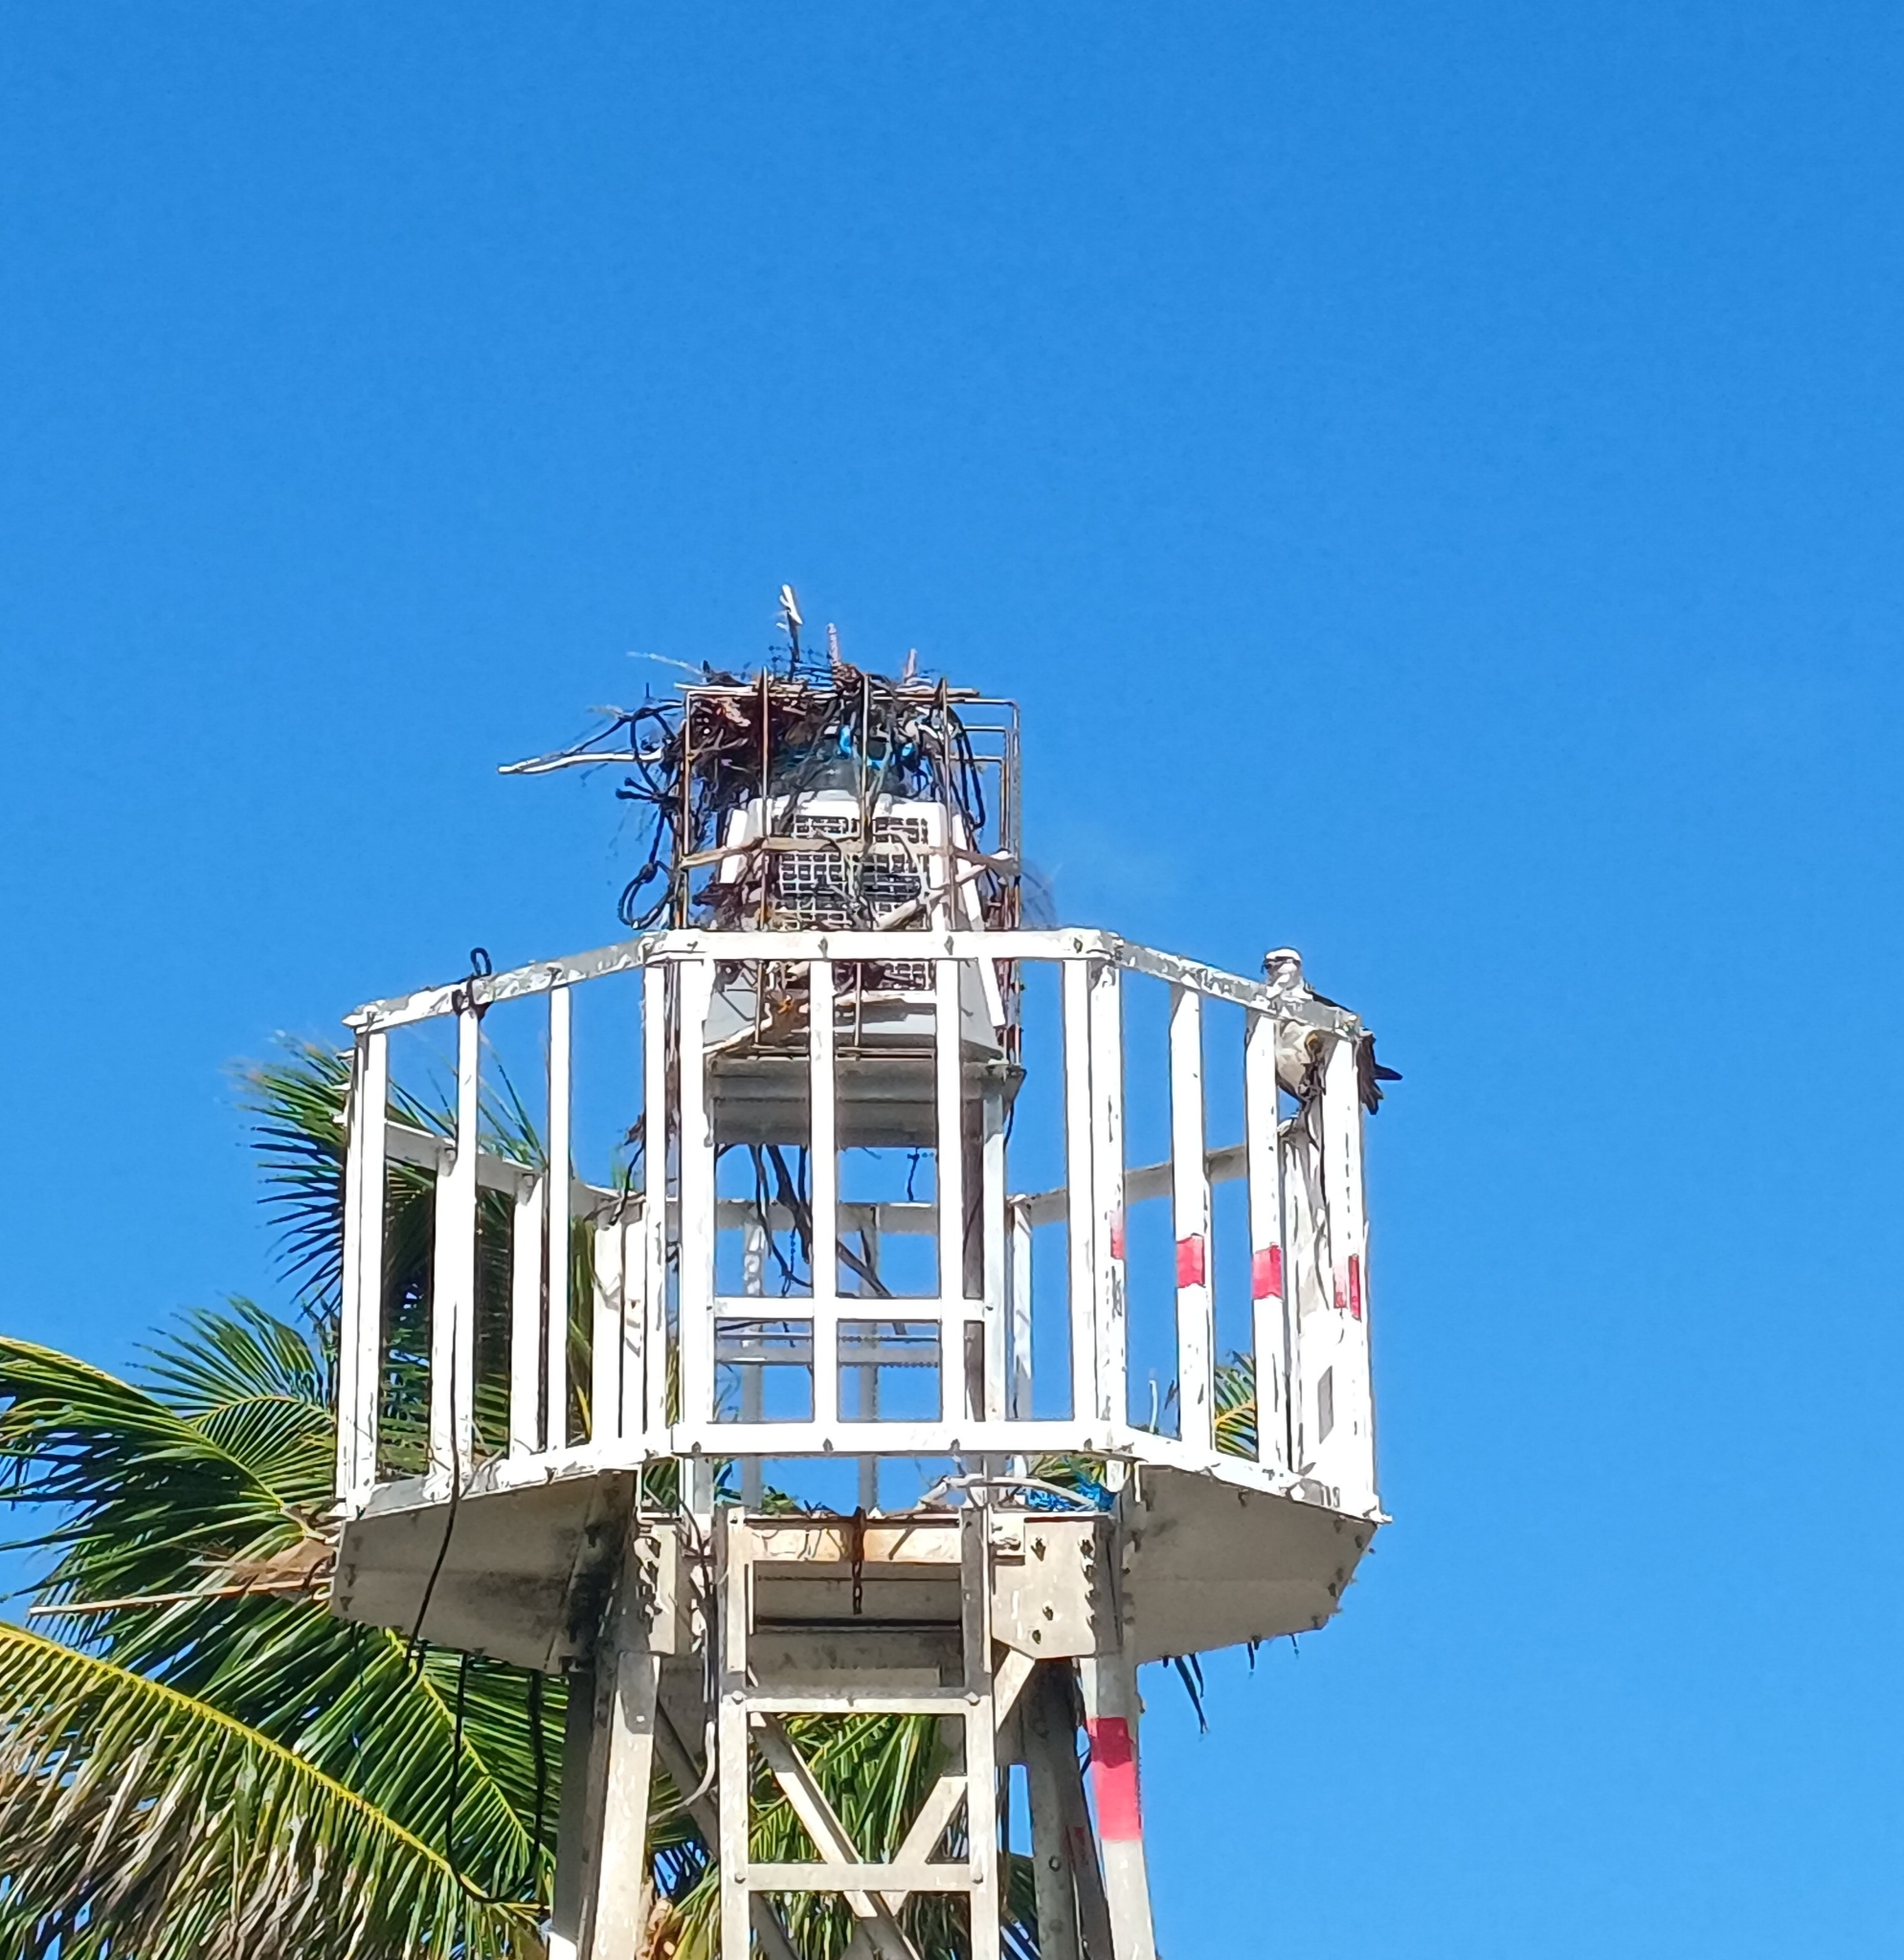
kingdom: Animalia
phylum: Chordata
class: Aves
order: Accipitriformes
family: Pandionidae
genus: Pandion
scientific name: Pandion haliaetus
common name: Osprey
